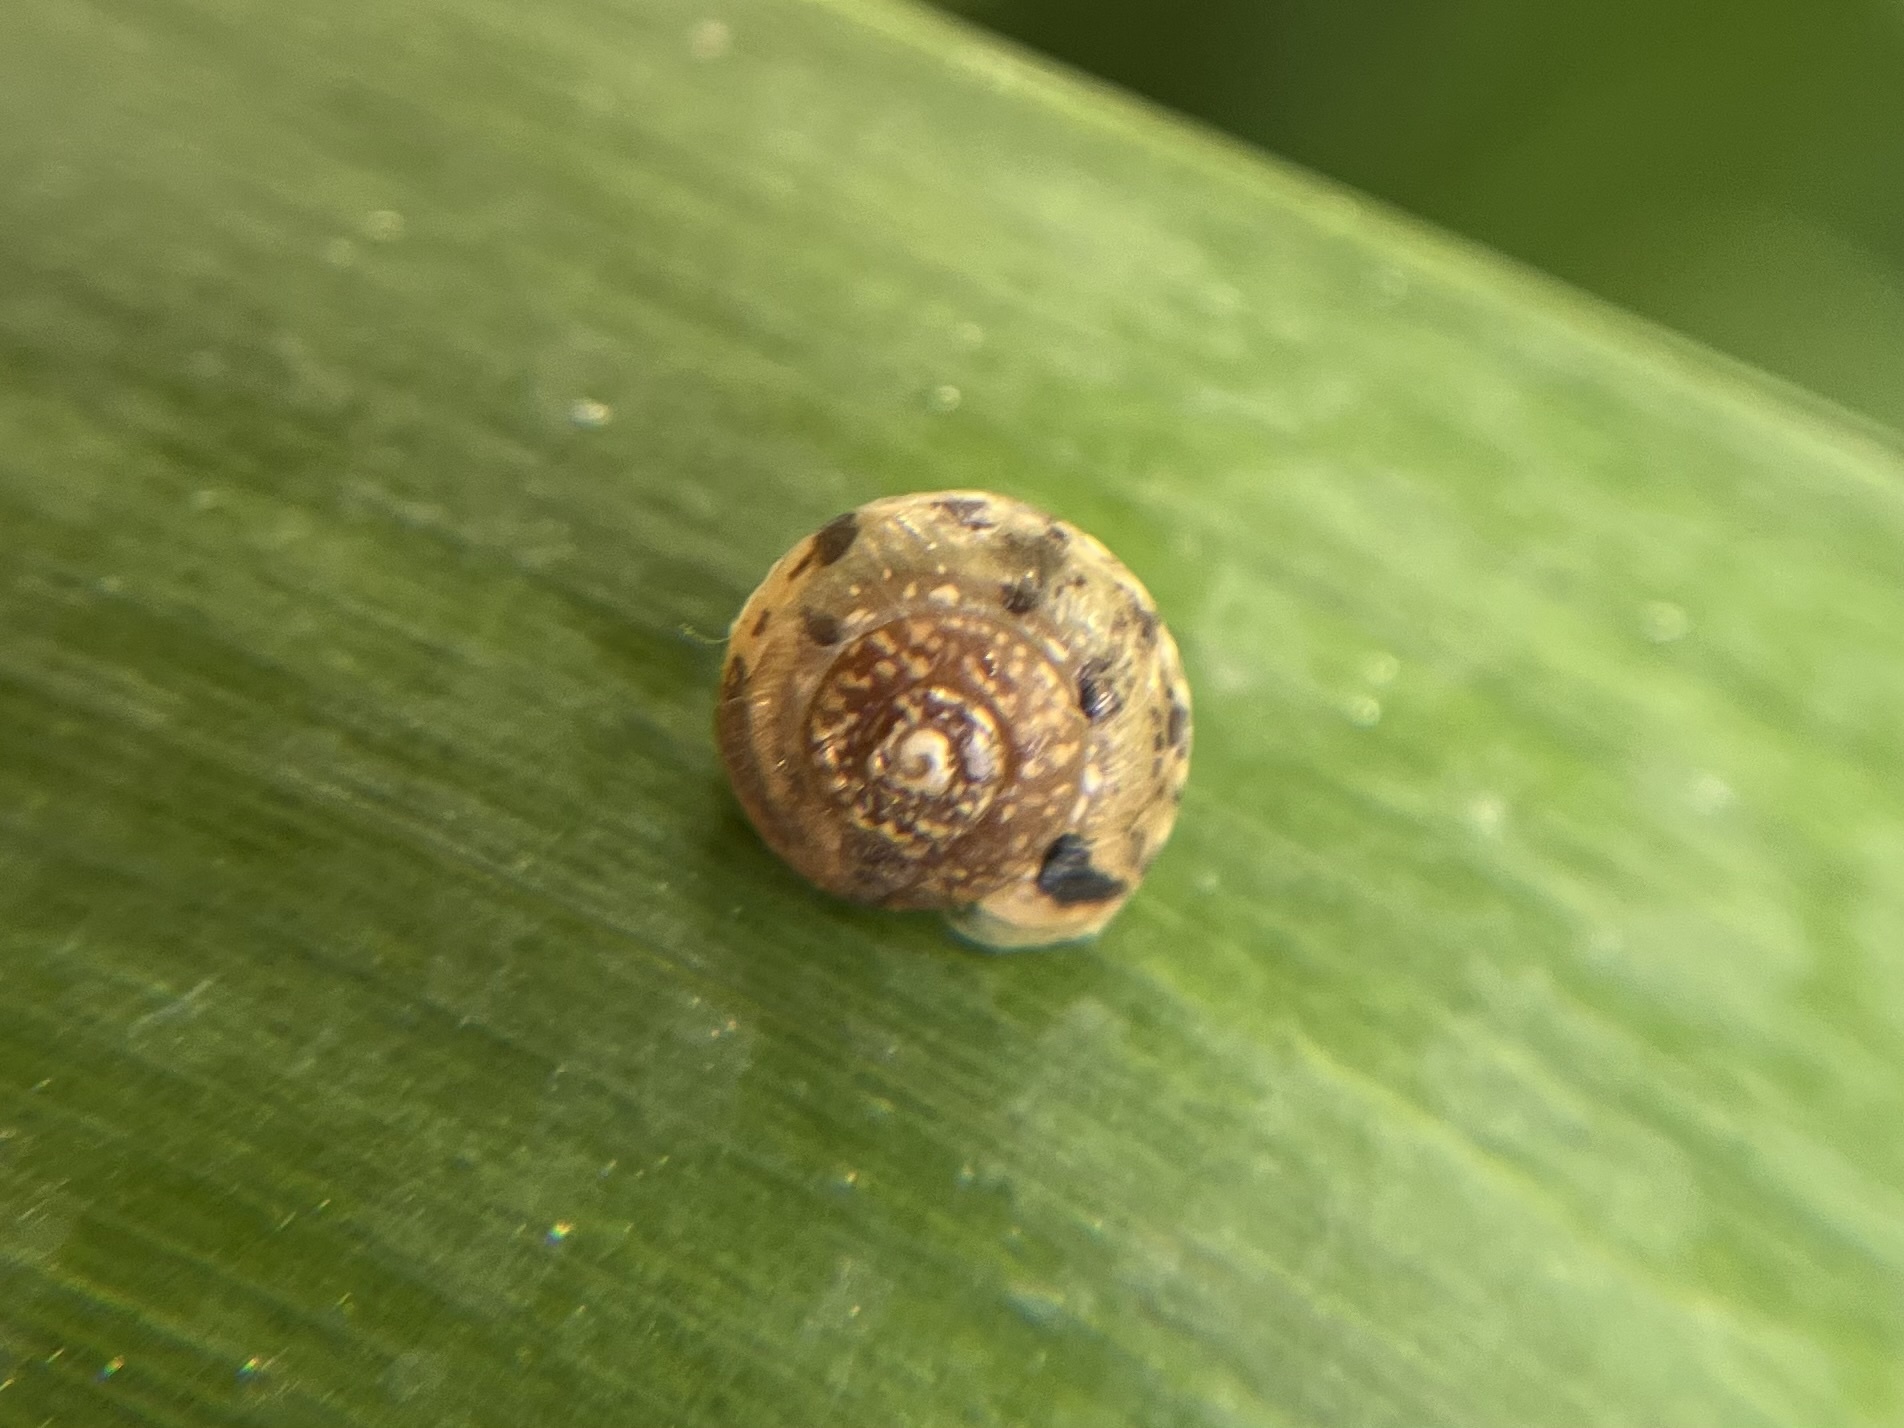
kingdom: Animalia
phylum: Mollusca
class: Gastropoda
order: Stylommatophora
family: Hygromiidae
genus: Hygromia
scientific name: Hygromia cinctella
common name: Girdled snail
